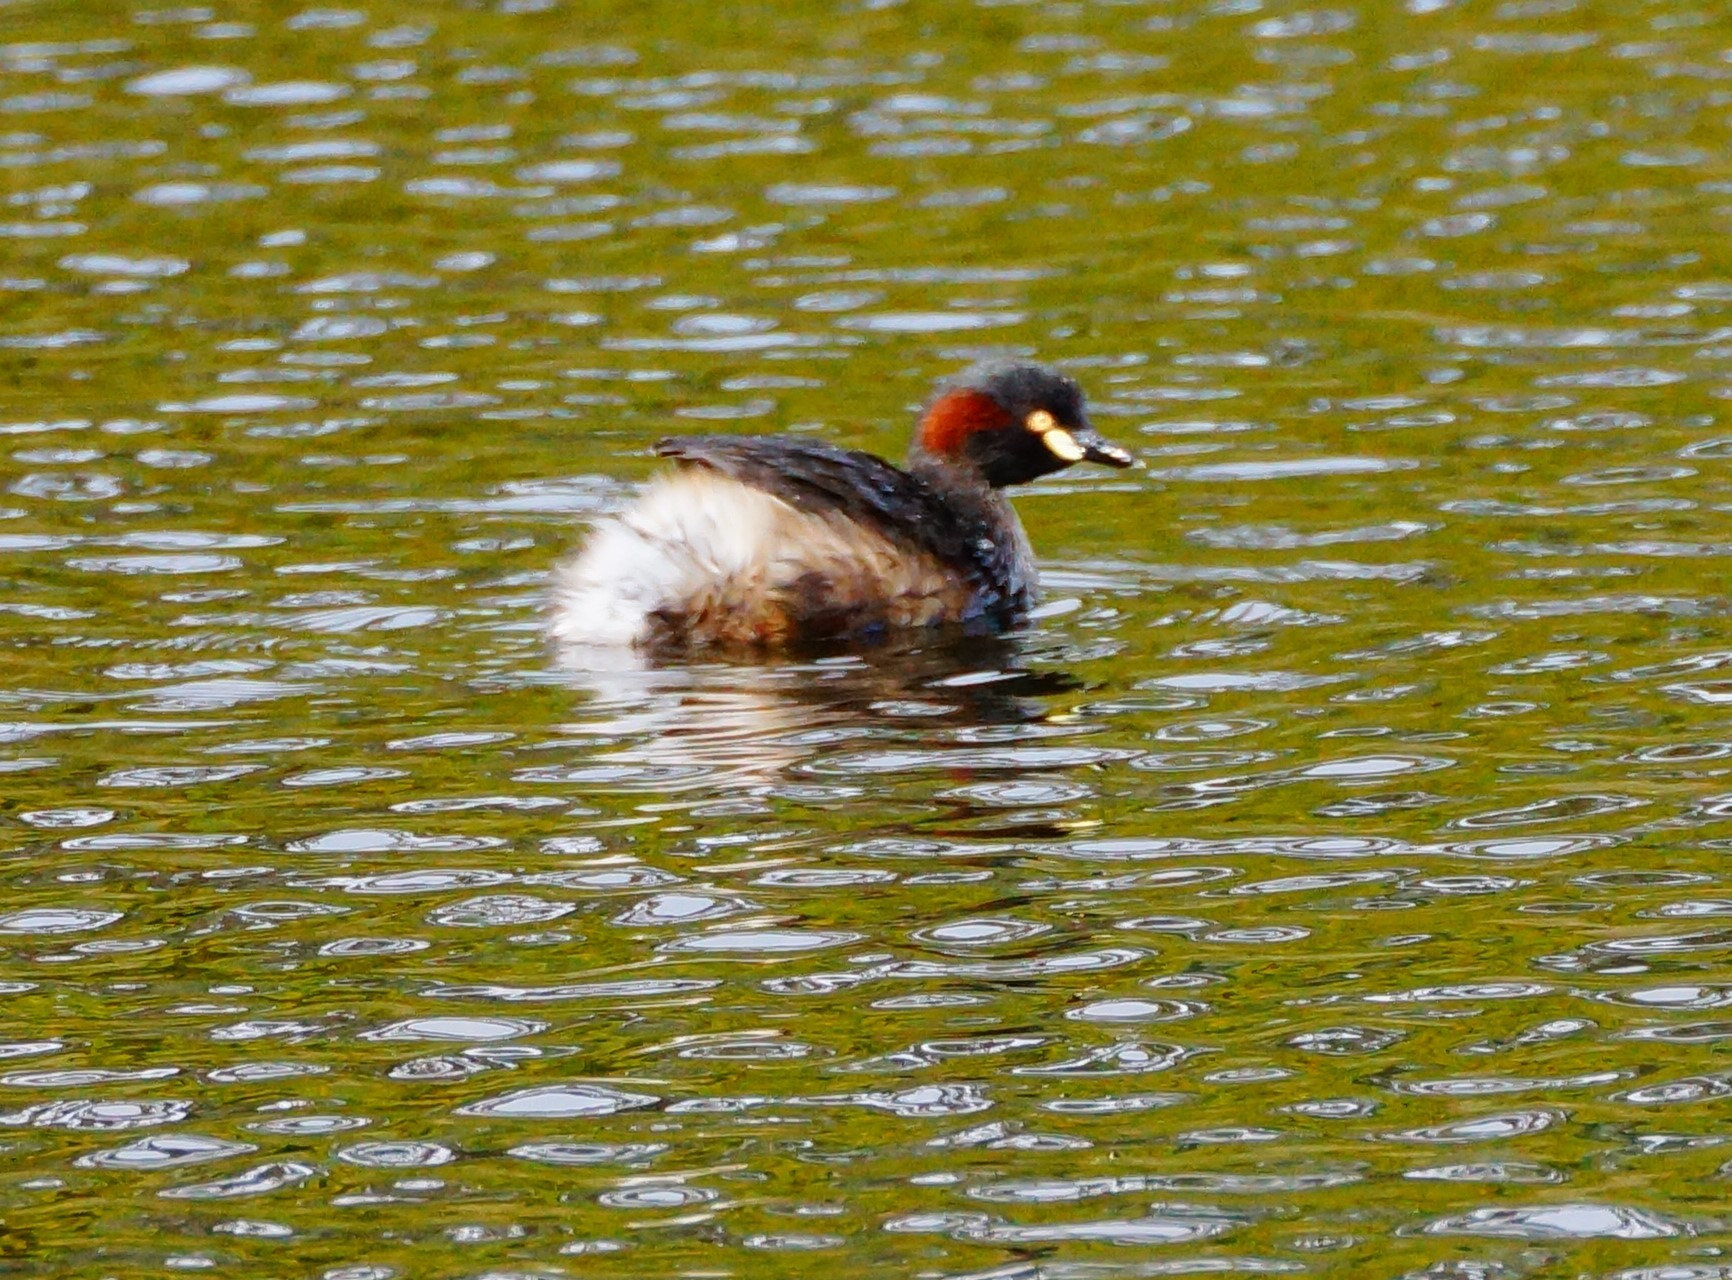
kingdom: Animalia
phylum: Chordata
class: Aves
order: Podicipediformes
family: Podicipedidae
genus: Tachybaptus
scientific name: Tachybaptus novaehollandiae
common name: Australasian grebe
